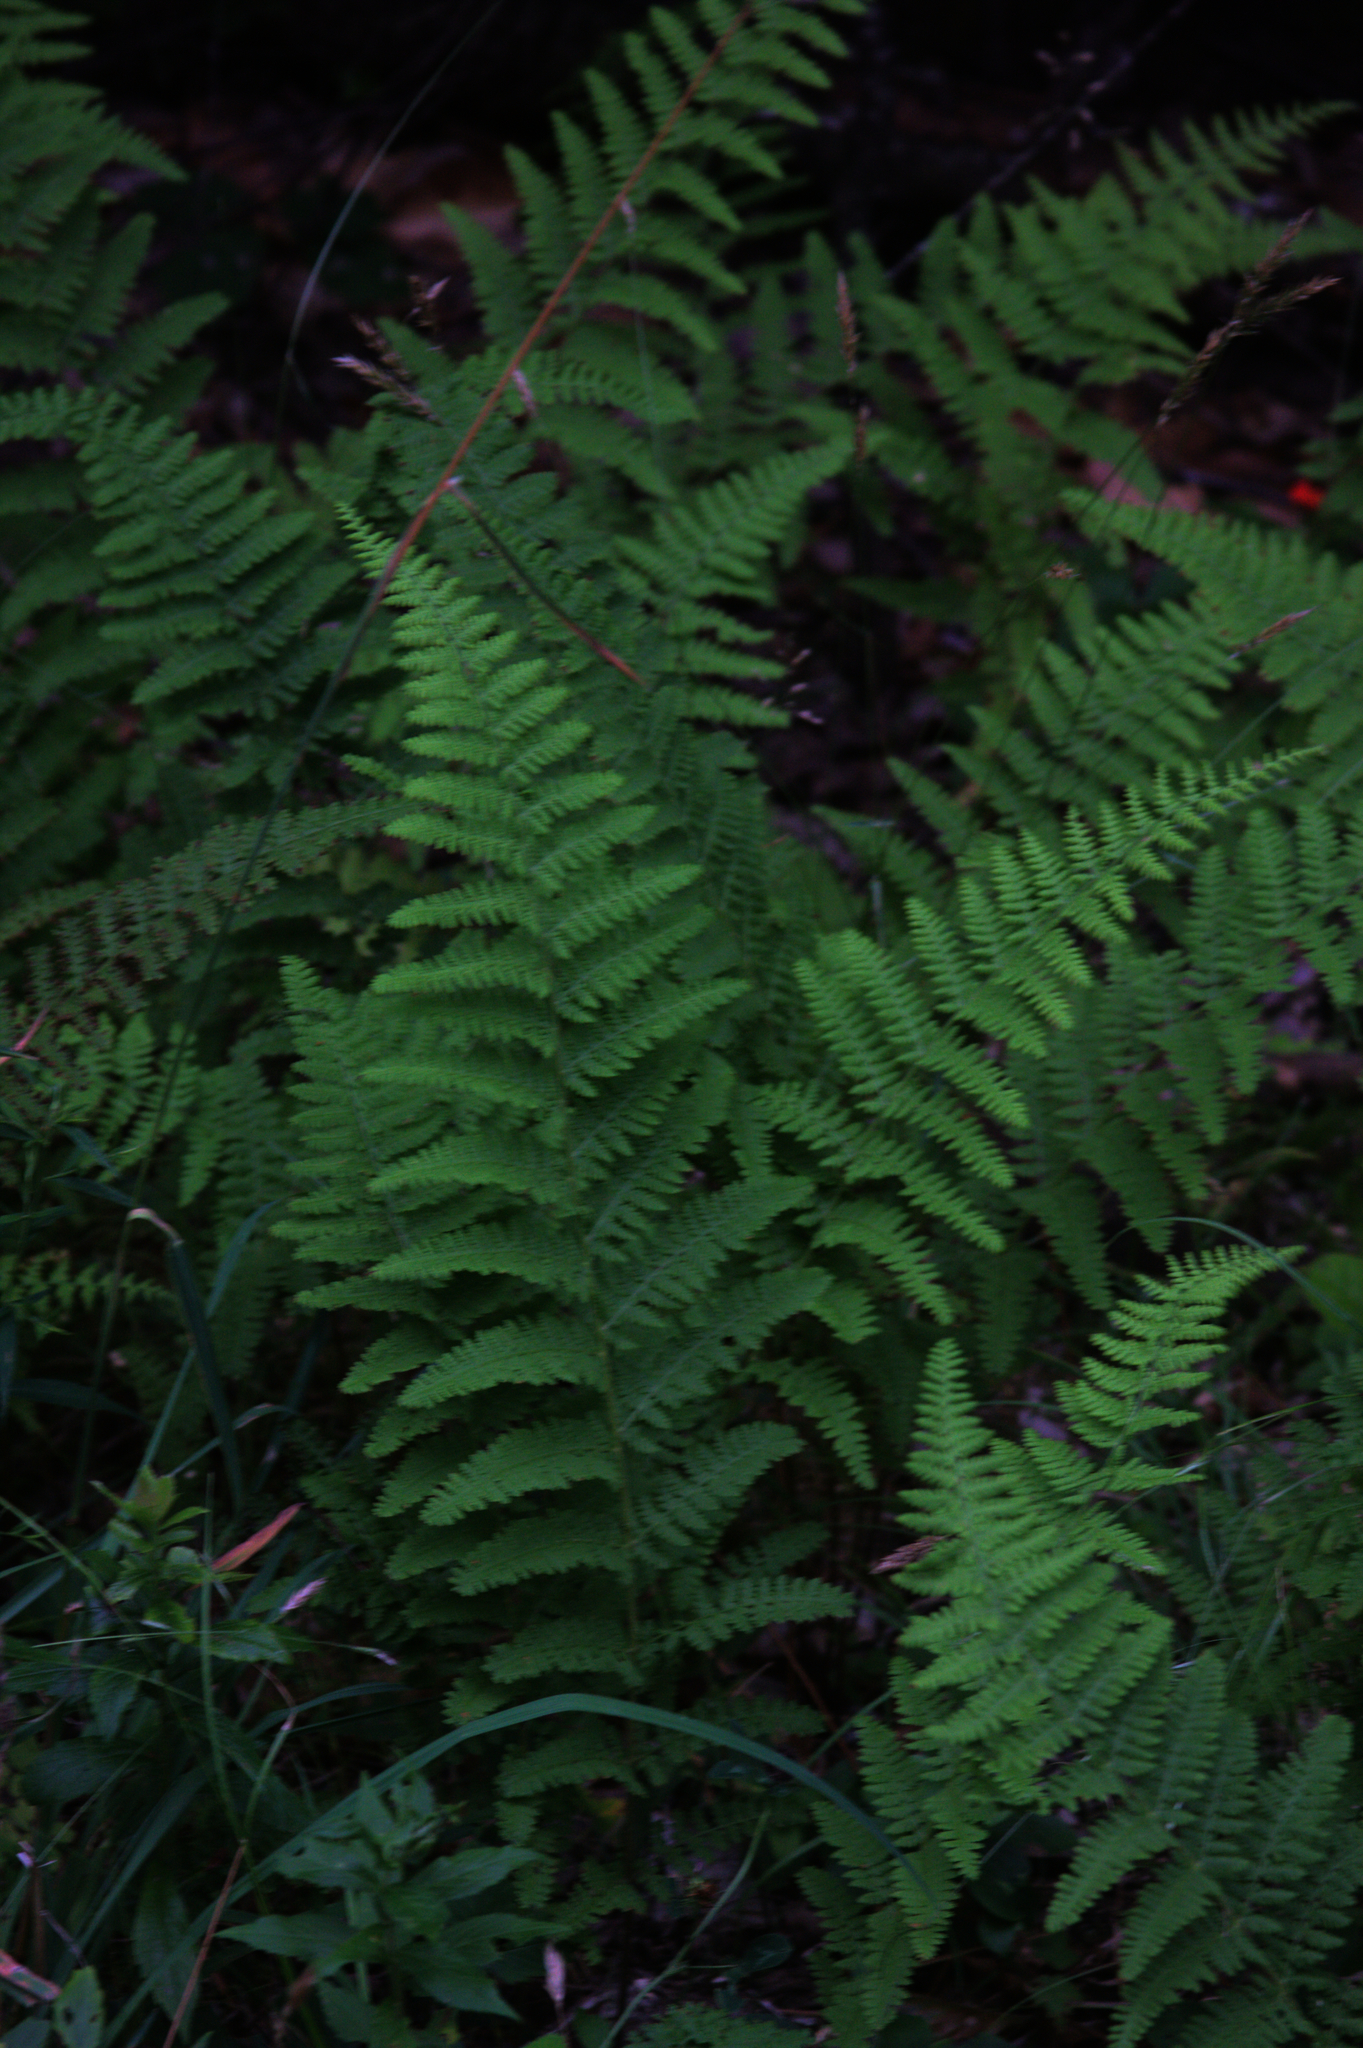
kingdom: Plantae
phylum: Tracheophyta
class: Polypodiopsida
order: Polypodiales
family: Dennstaedtiaceae
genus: Sitobolium
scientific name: Sitobolium punctilobum
